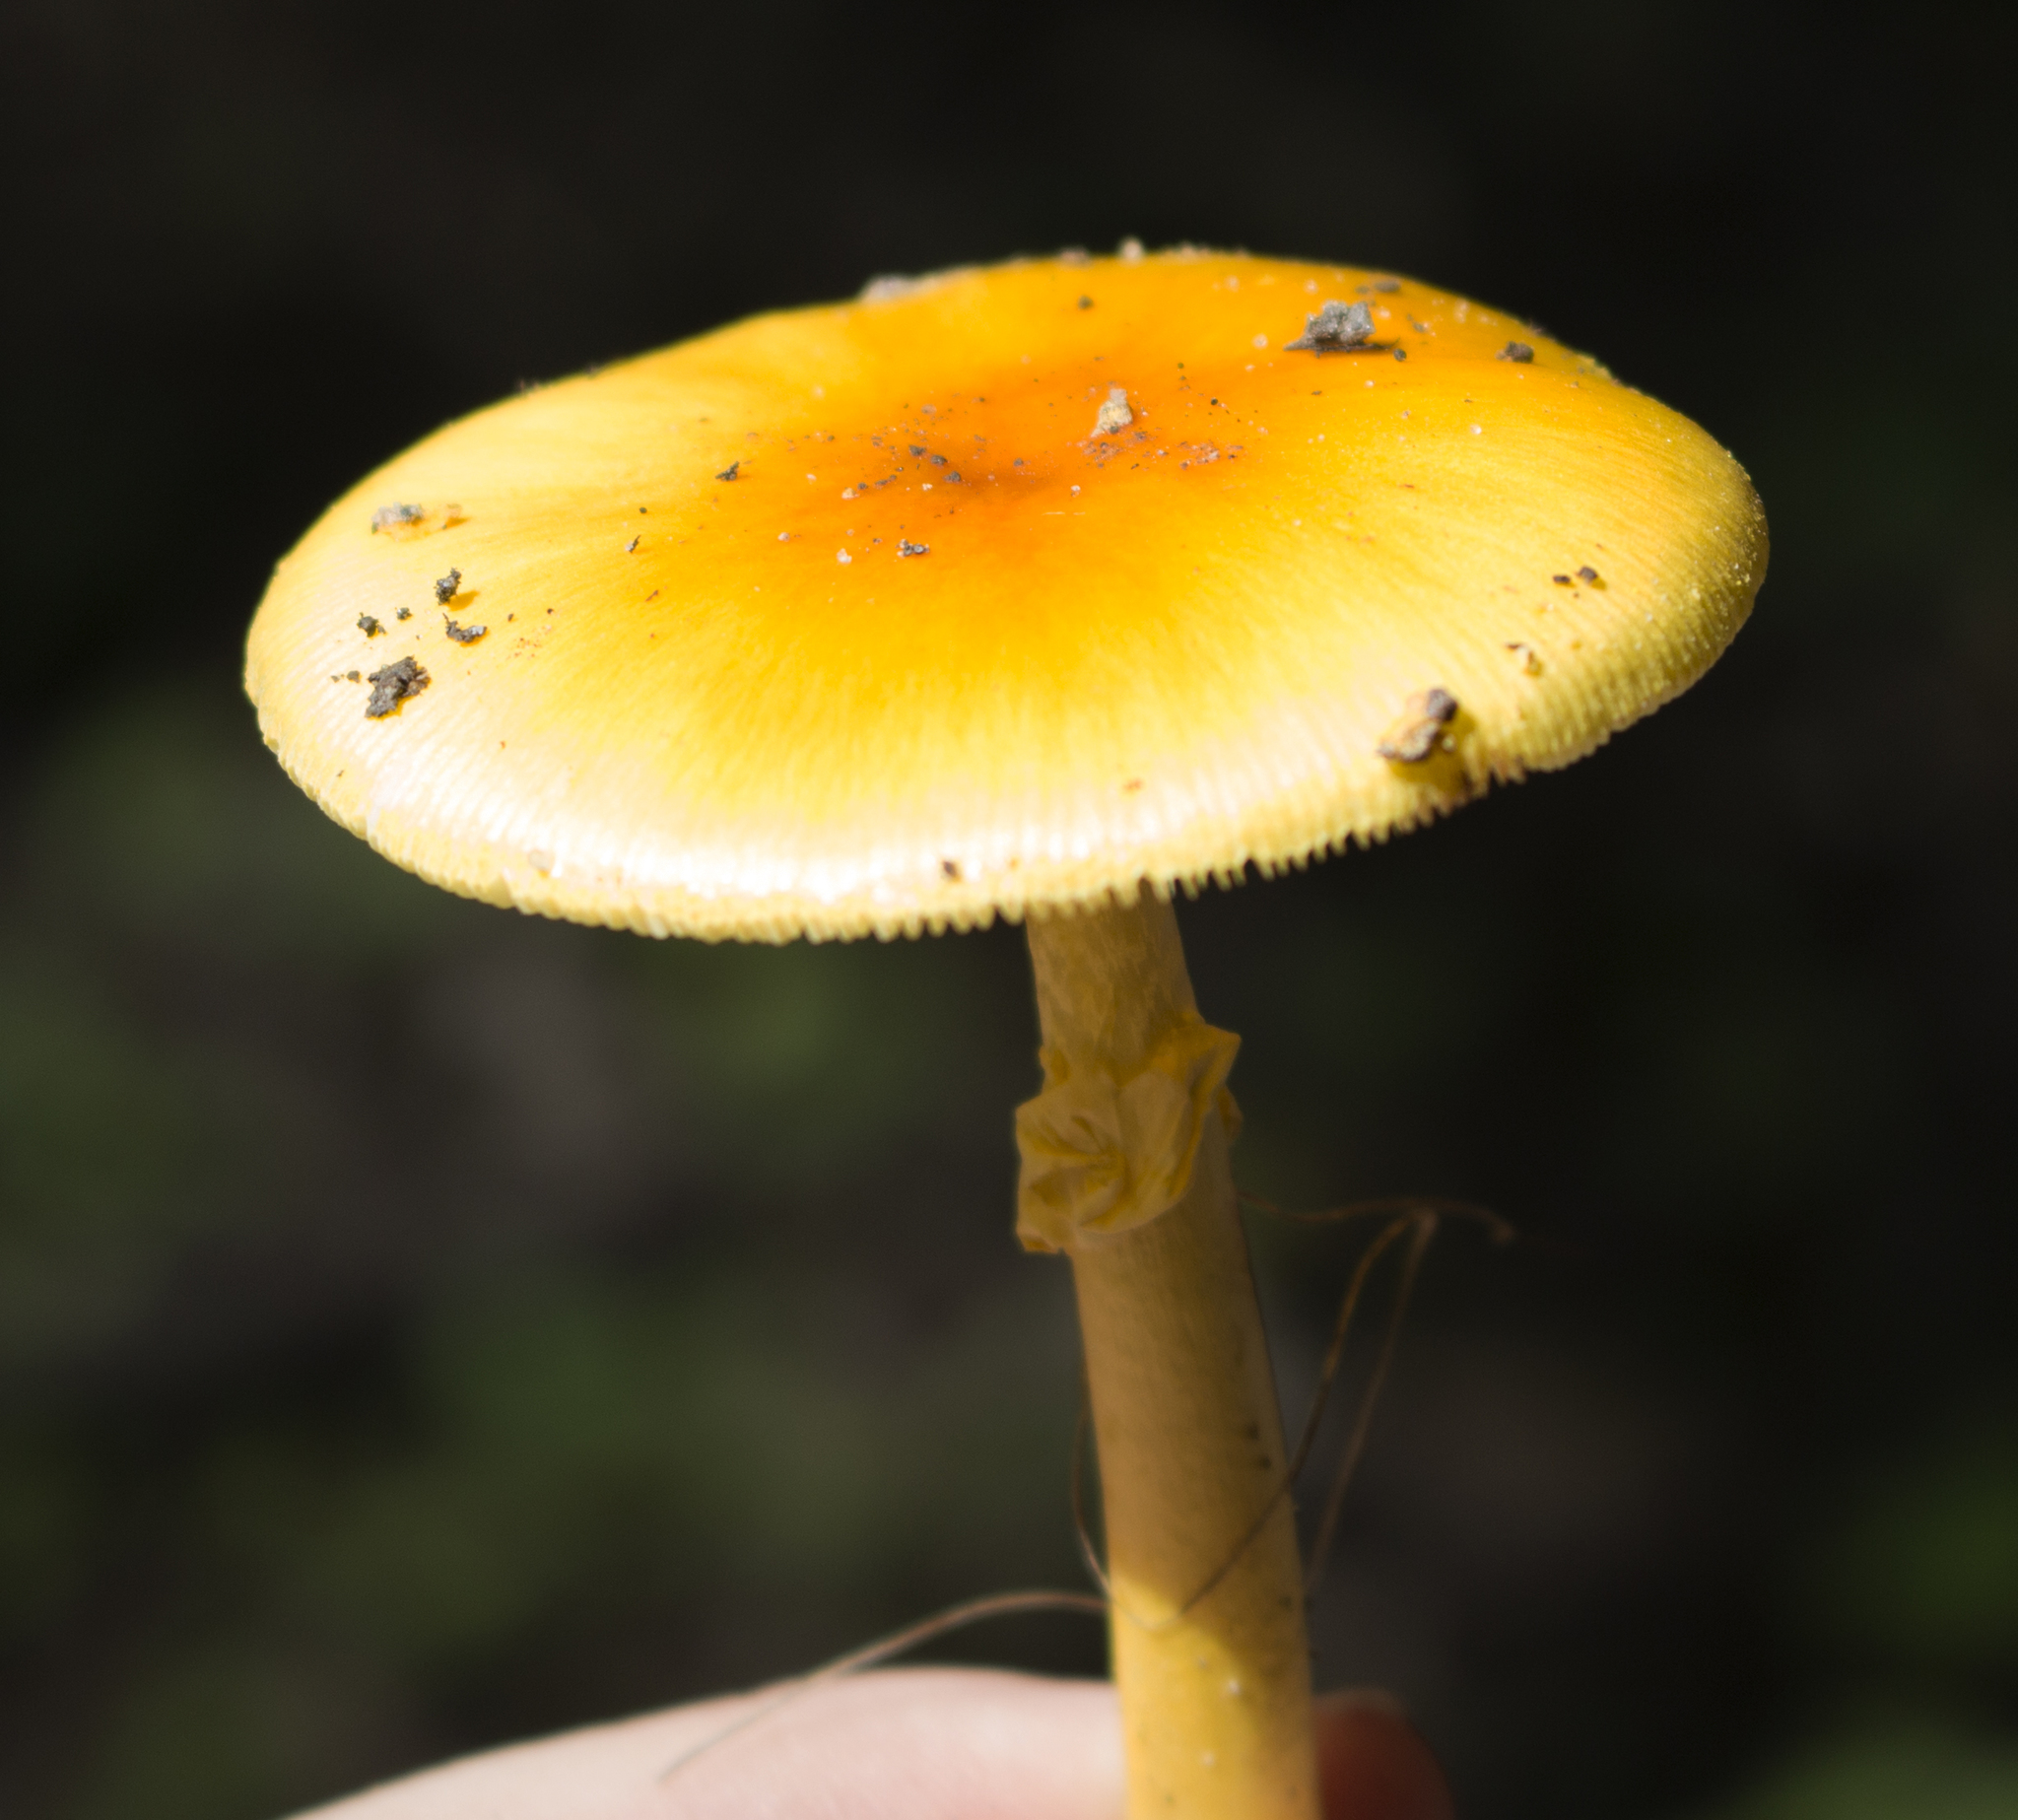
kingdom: Fungi
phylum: Basidiomycota
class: Agaricomycetes
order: Agaricales
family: Amanitaceae
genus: Amanita
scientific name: Amanita flavoconia
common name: Yellow patches
